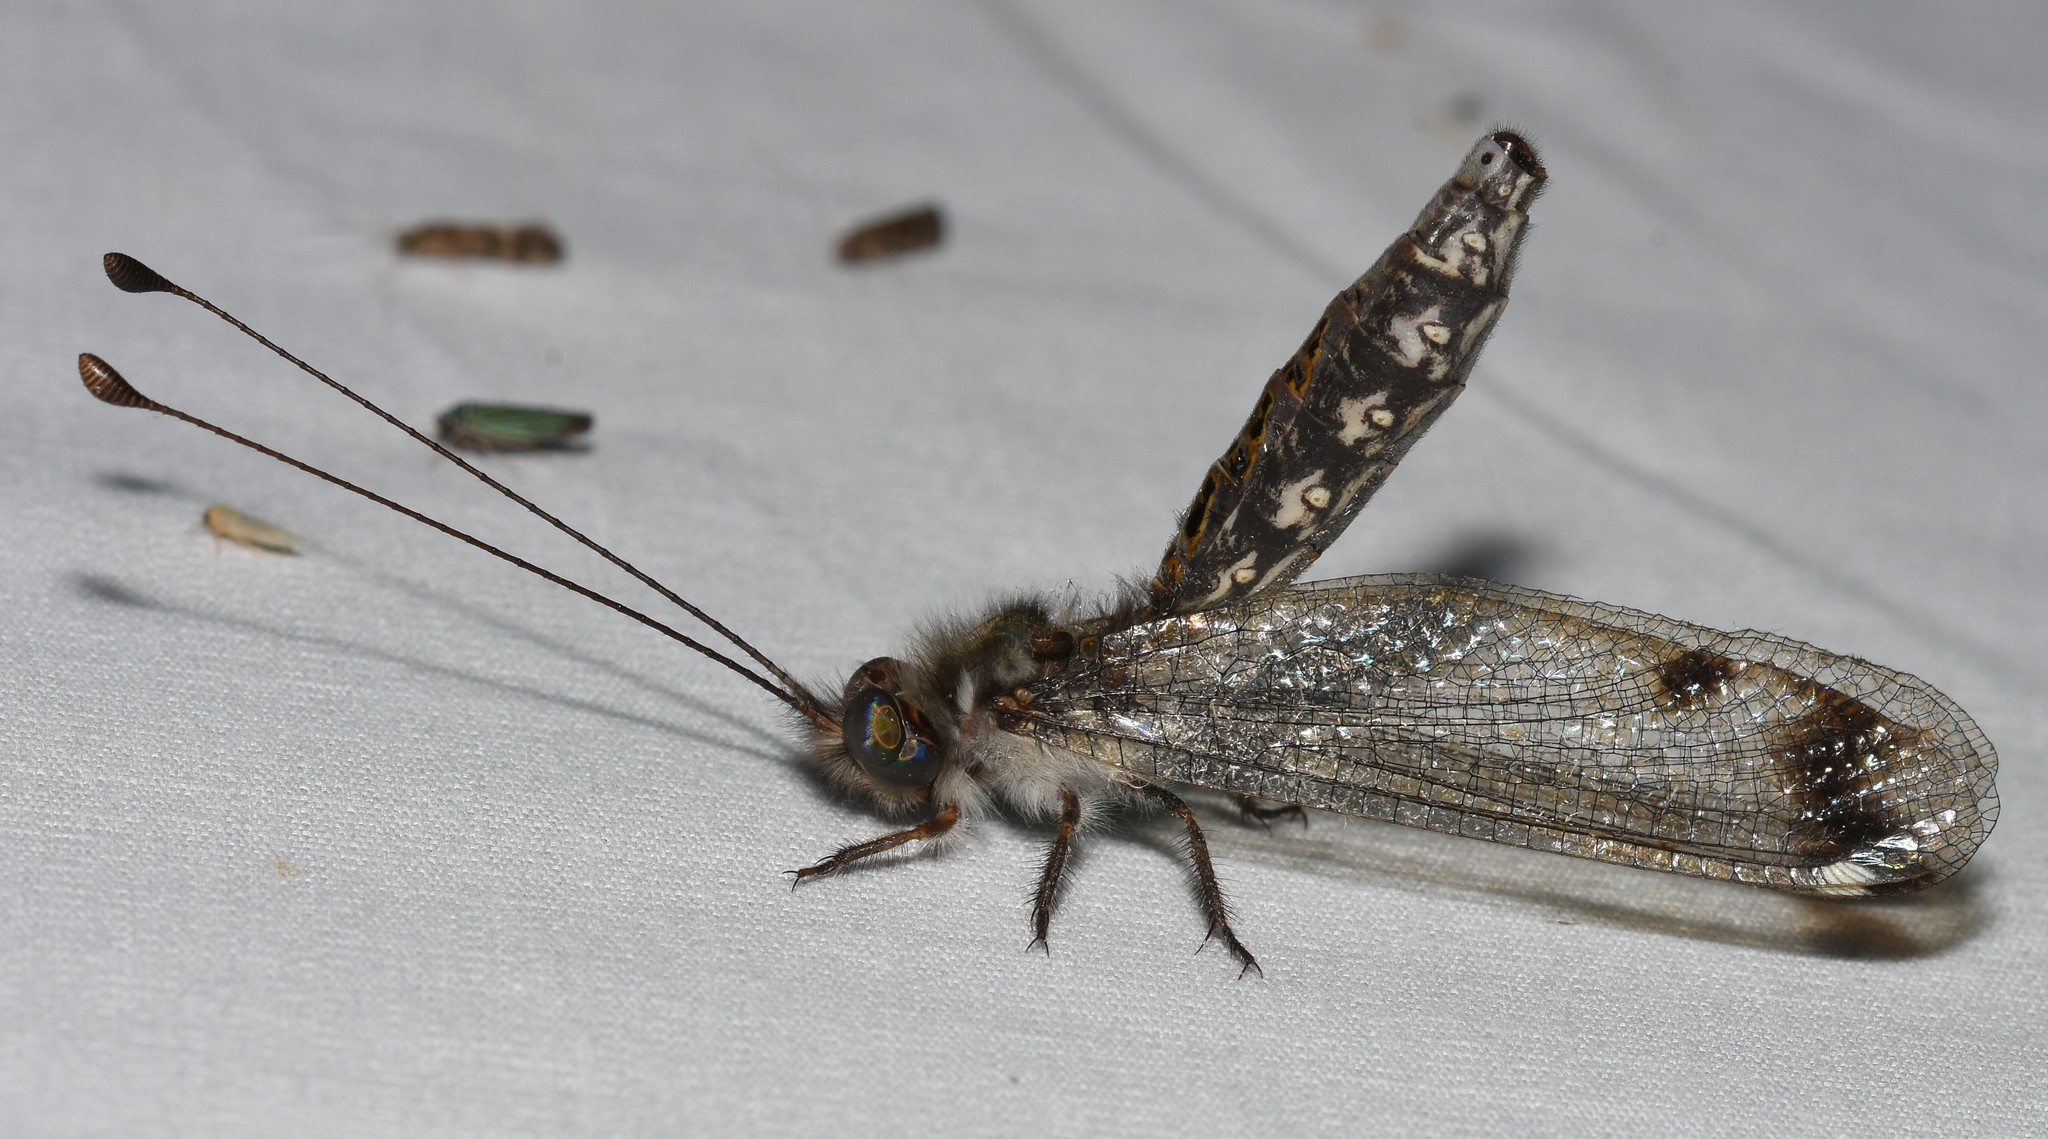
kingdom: Animalia
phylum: Arthropoda
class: Insecta
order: Neuroptera
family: Ascalaphidae
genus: Ululodes
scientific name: Ululodes quadripunctatus
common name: Four-spotted owlfly
